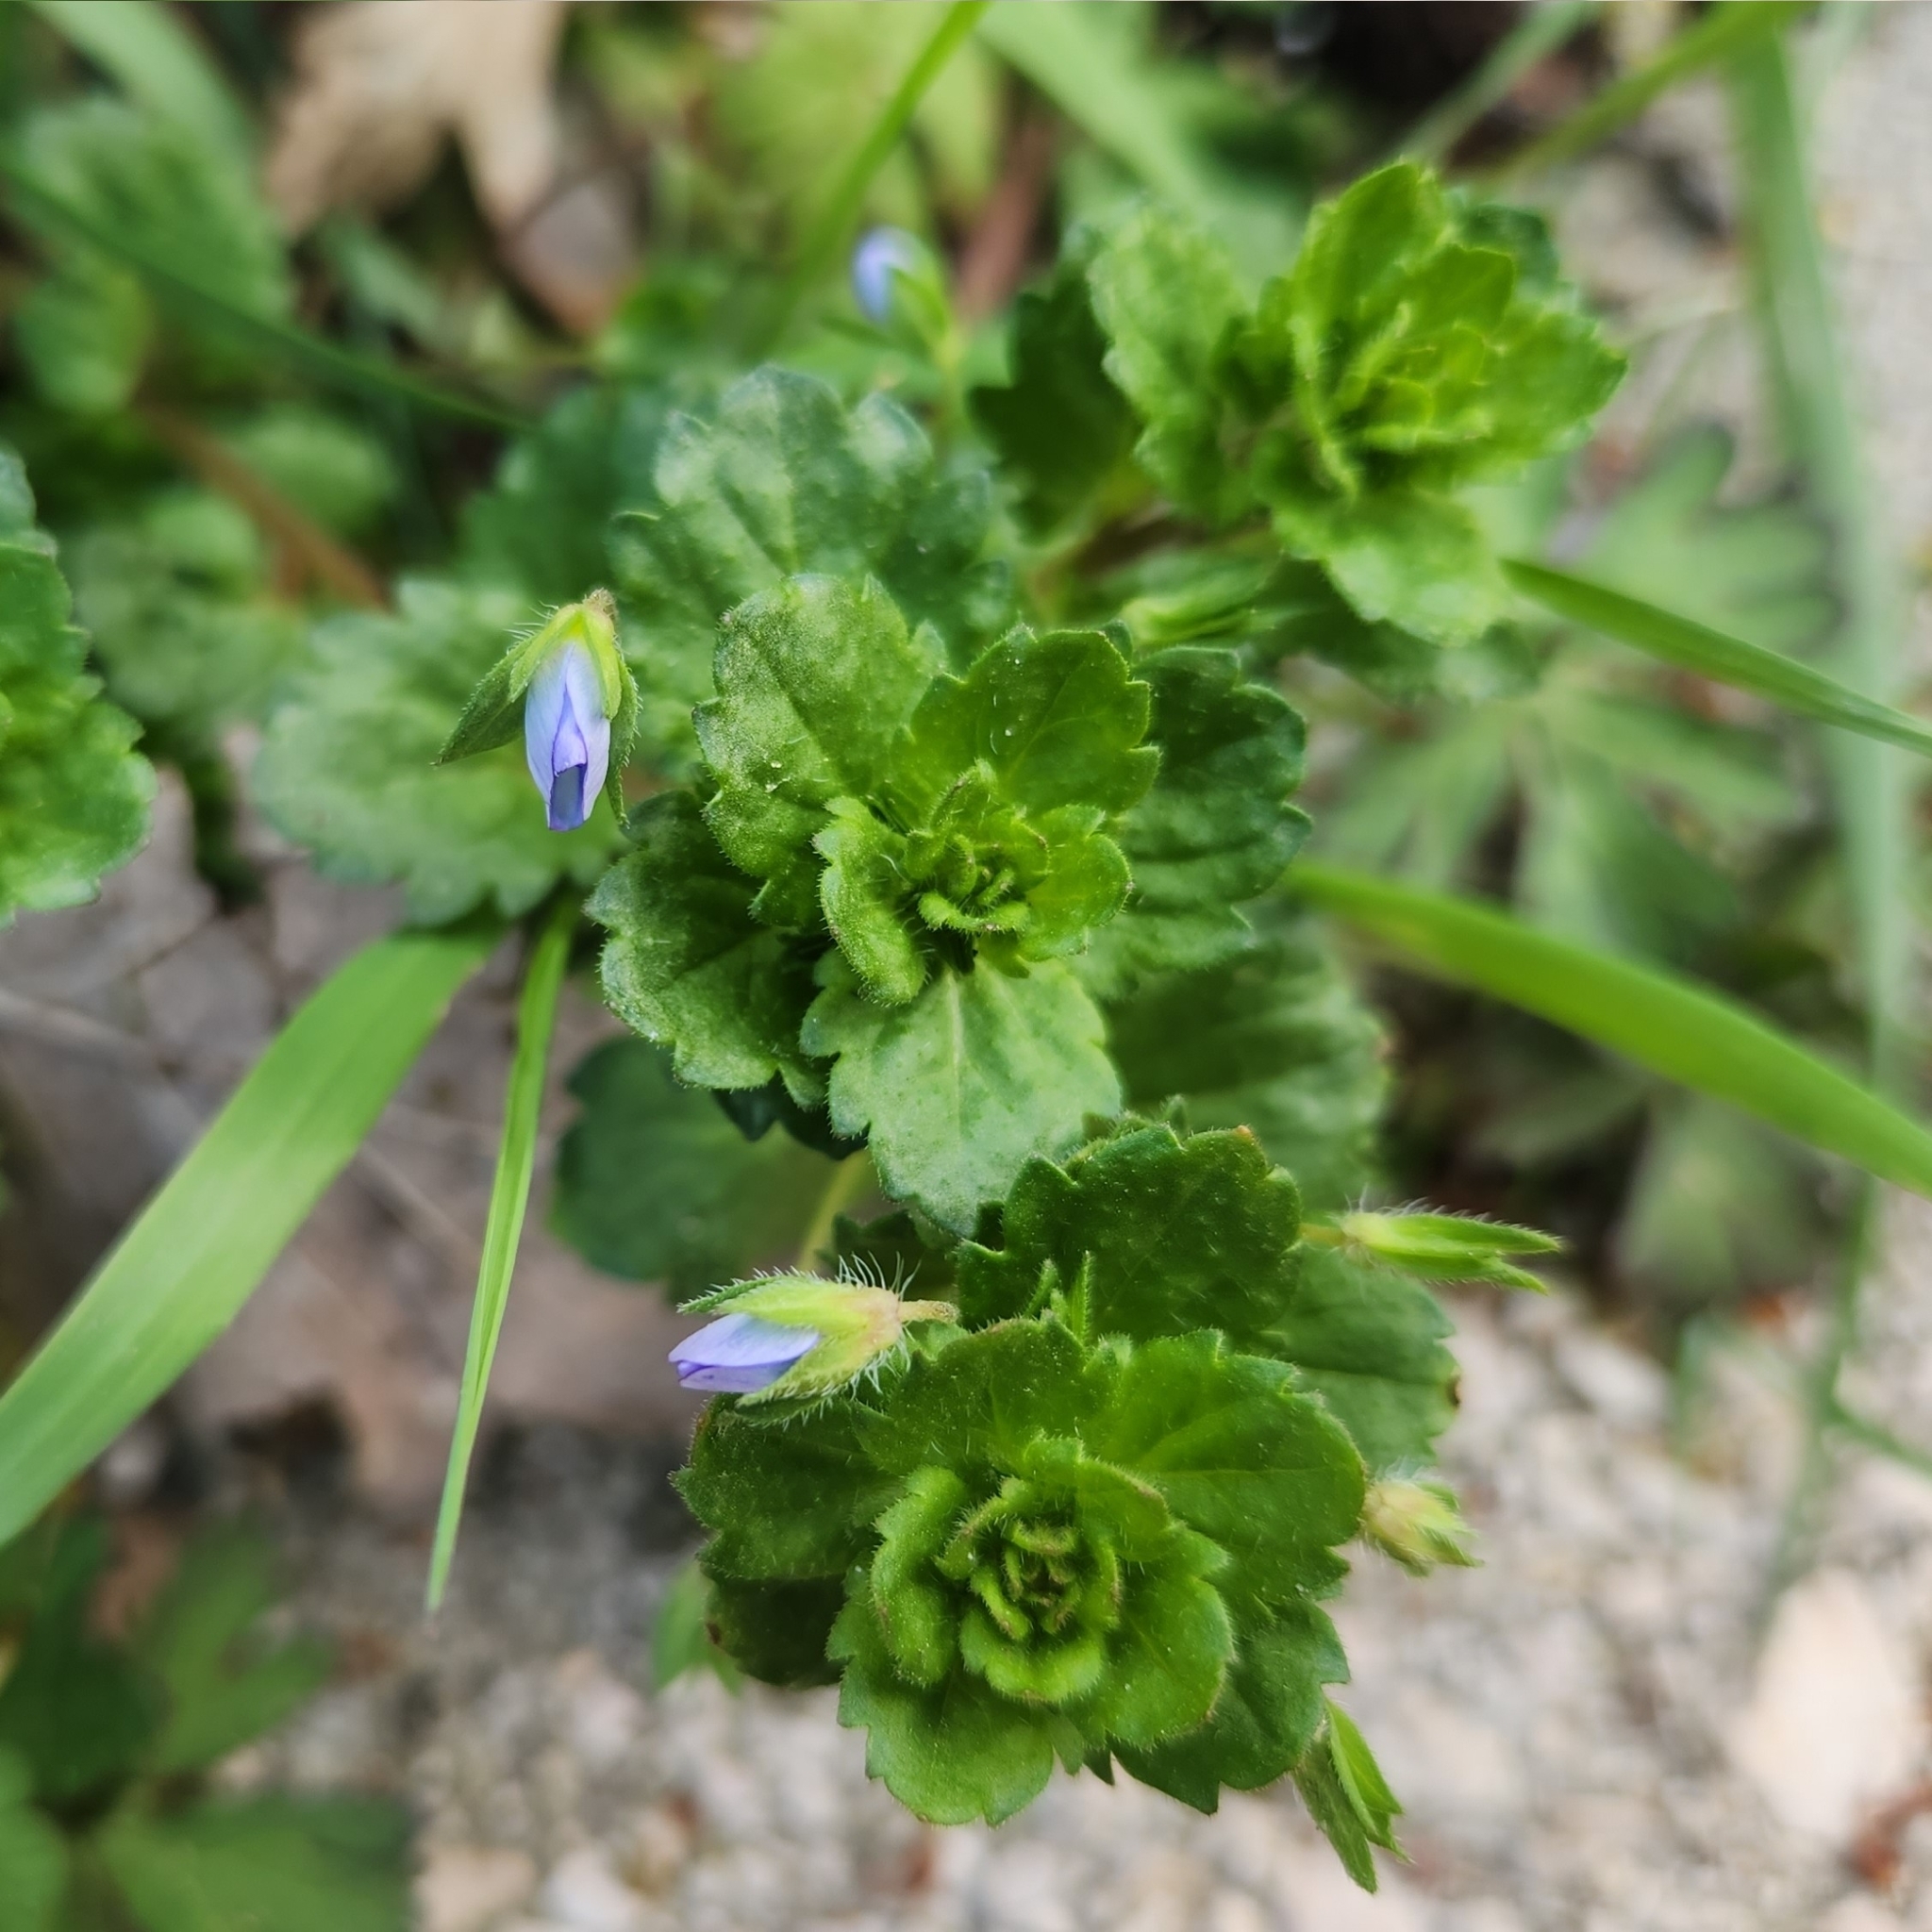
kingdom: Plantae
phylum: Tracheophyta
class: Magnoliopsida
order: Lamiales
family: Plantaginaceae
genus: Veronica
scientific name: Veronica persica
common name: Common field-speedwell
